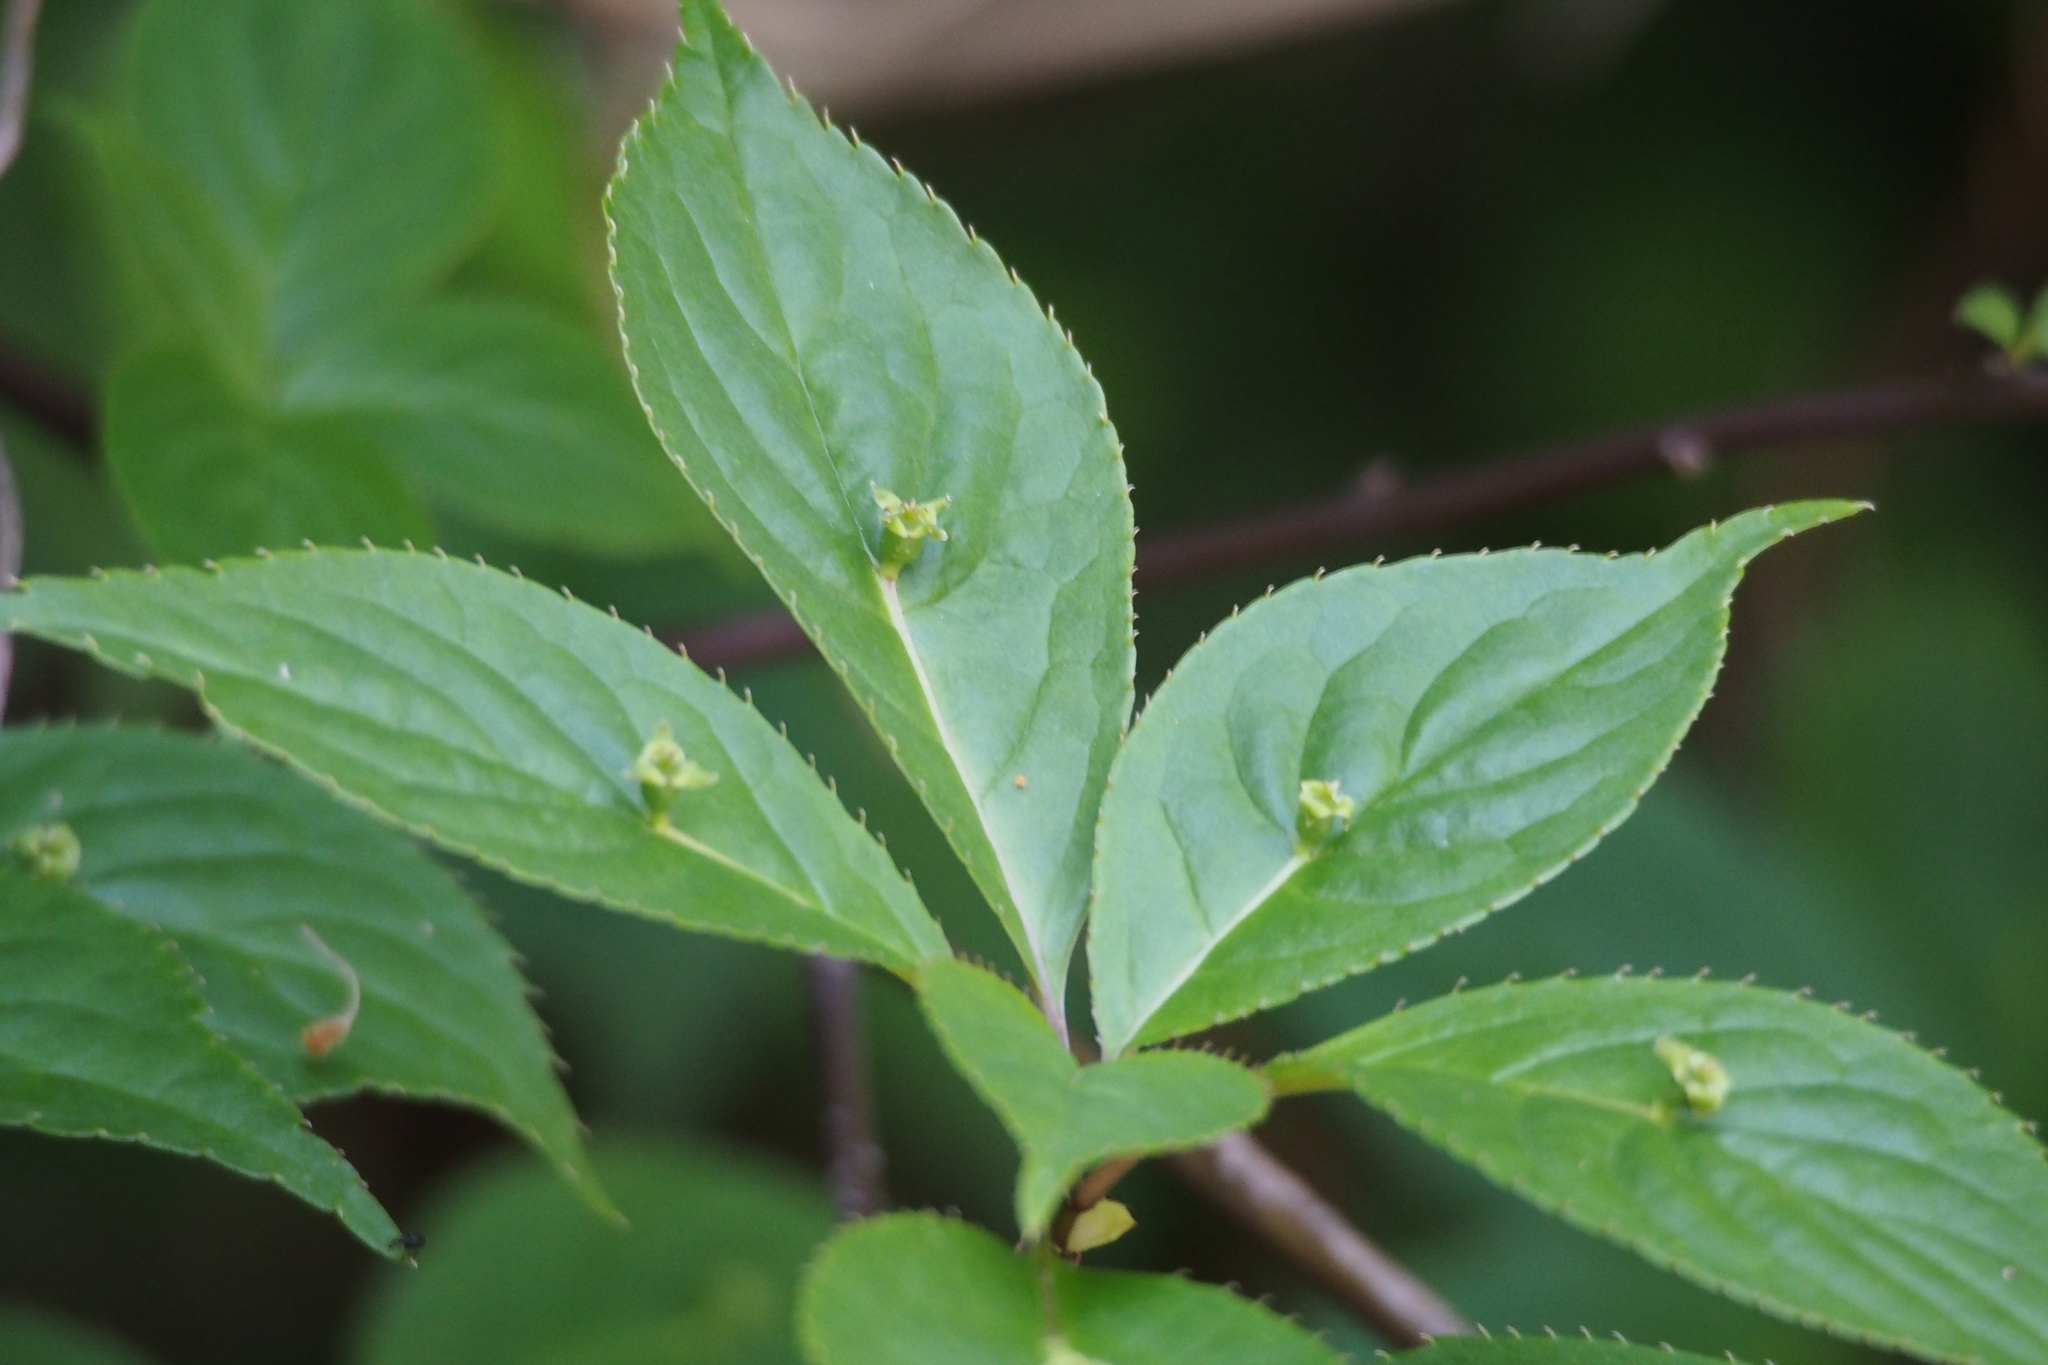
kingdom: Plantae
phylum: Tracheophyta
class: Magnoliopsida
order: Aquifoliales
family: Helwingiaceae
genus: Helwingia
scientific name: Helwingia japonica
